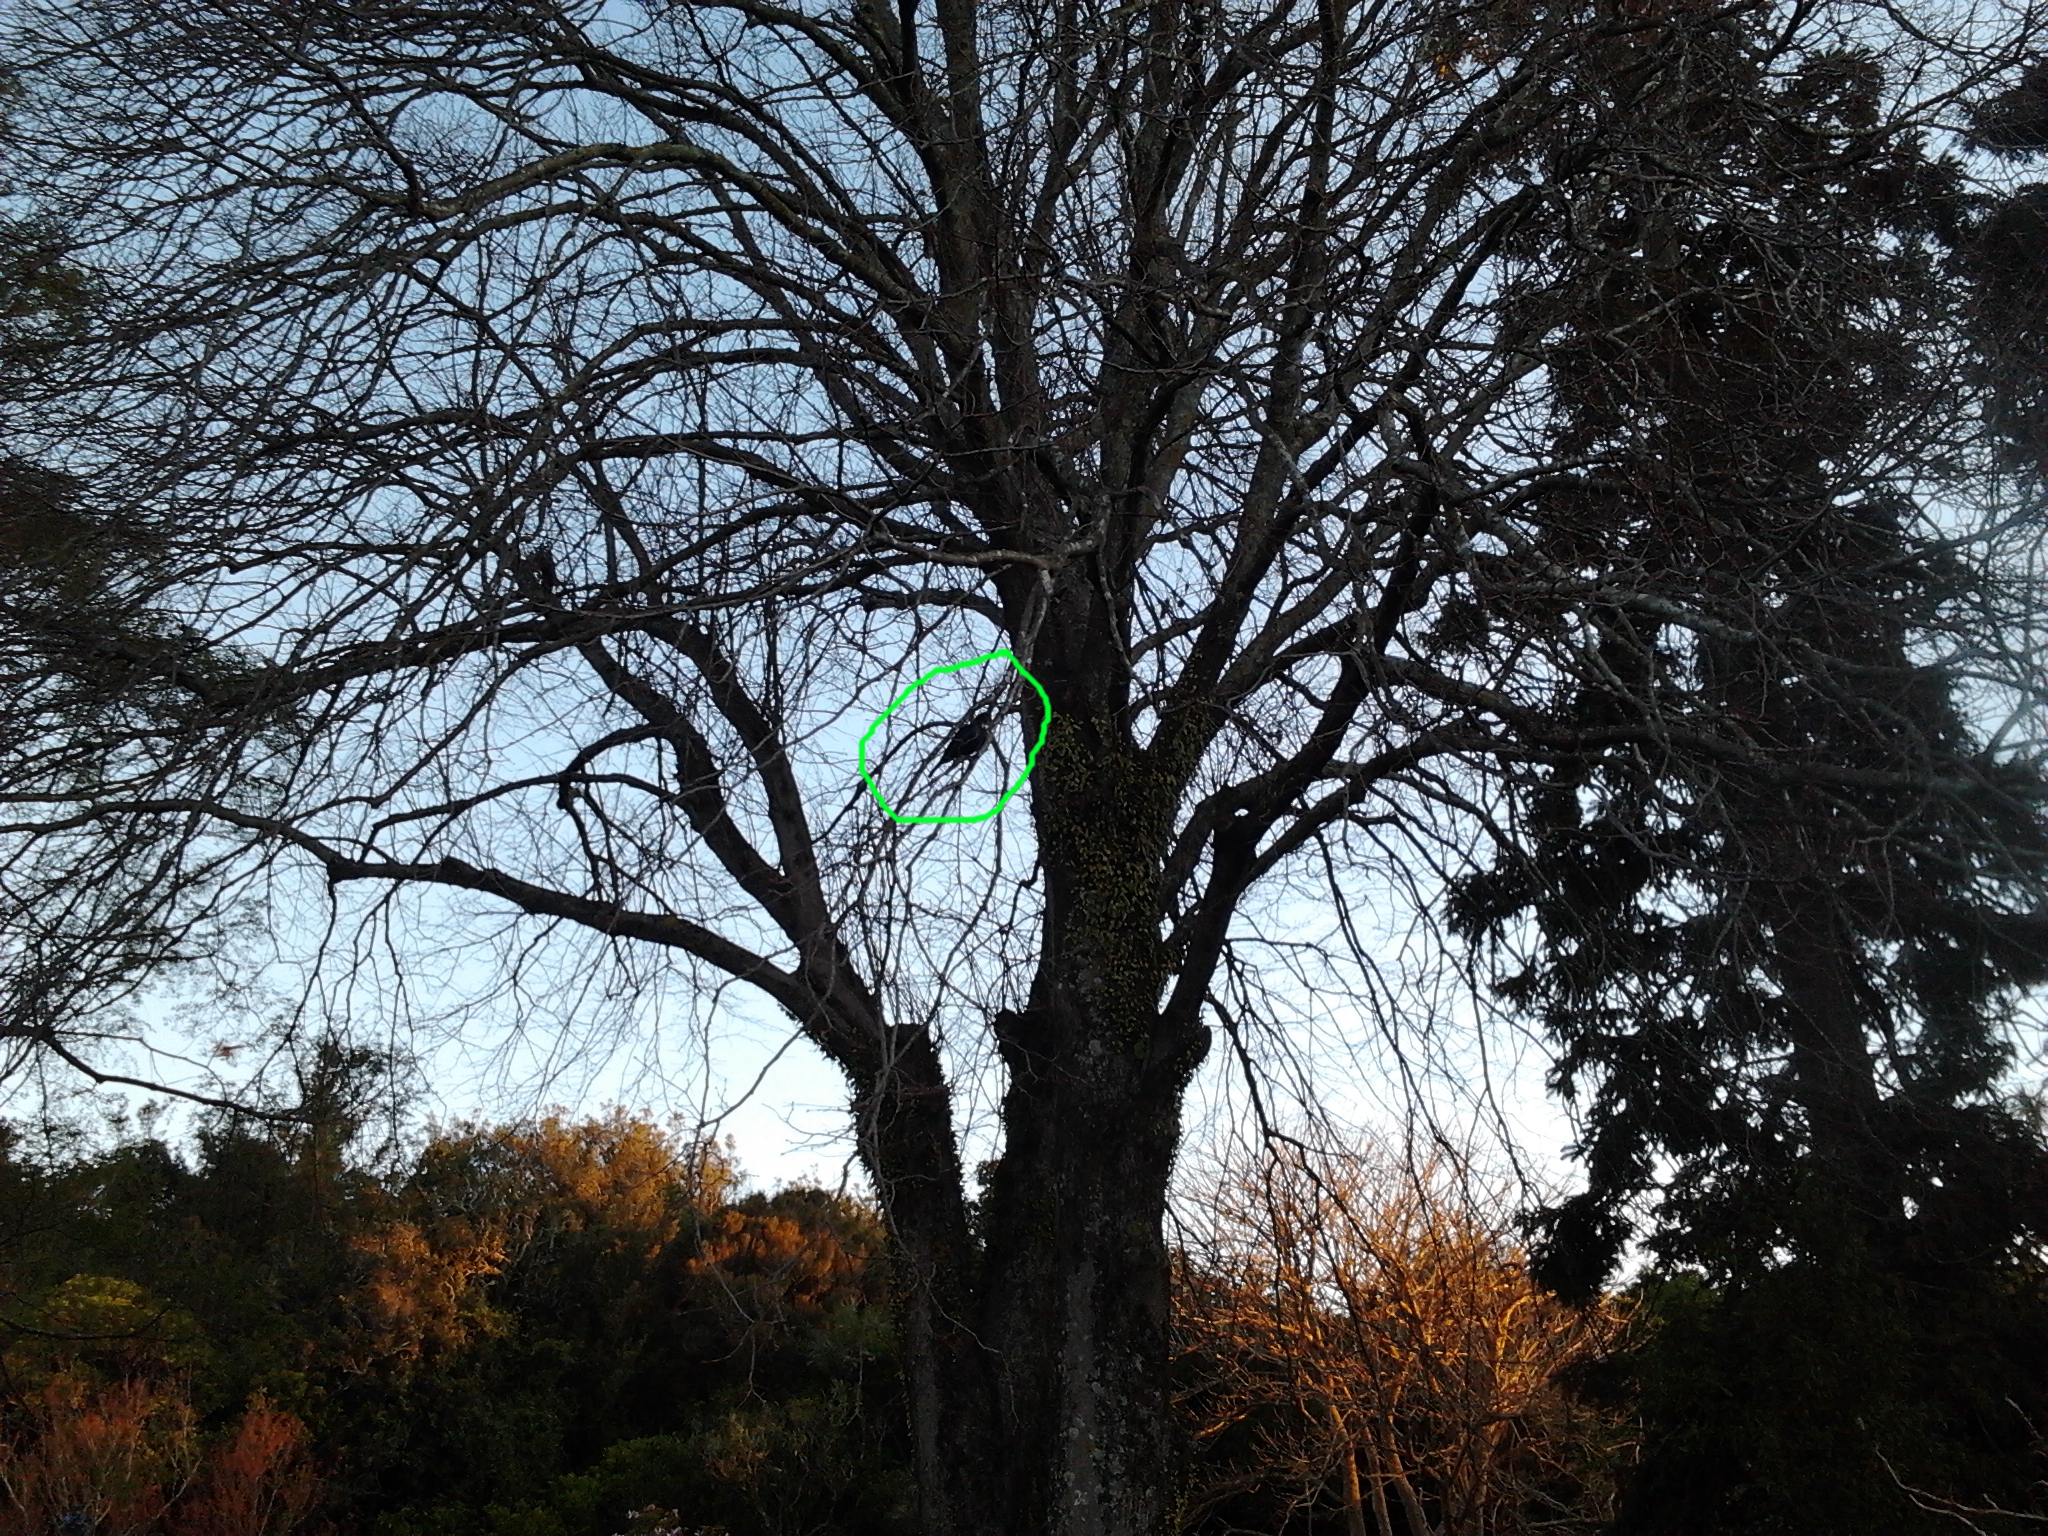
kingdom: Animalia
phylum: Chordata
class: Aves
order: Passeriformes
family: Meliphagidae
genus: Prosthemadera
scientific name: Prosthemadera novaeseelandiae
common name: Tui
